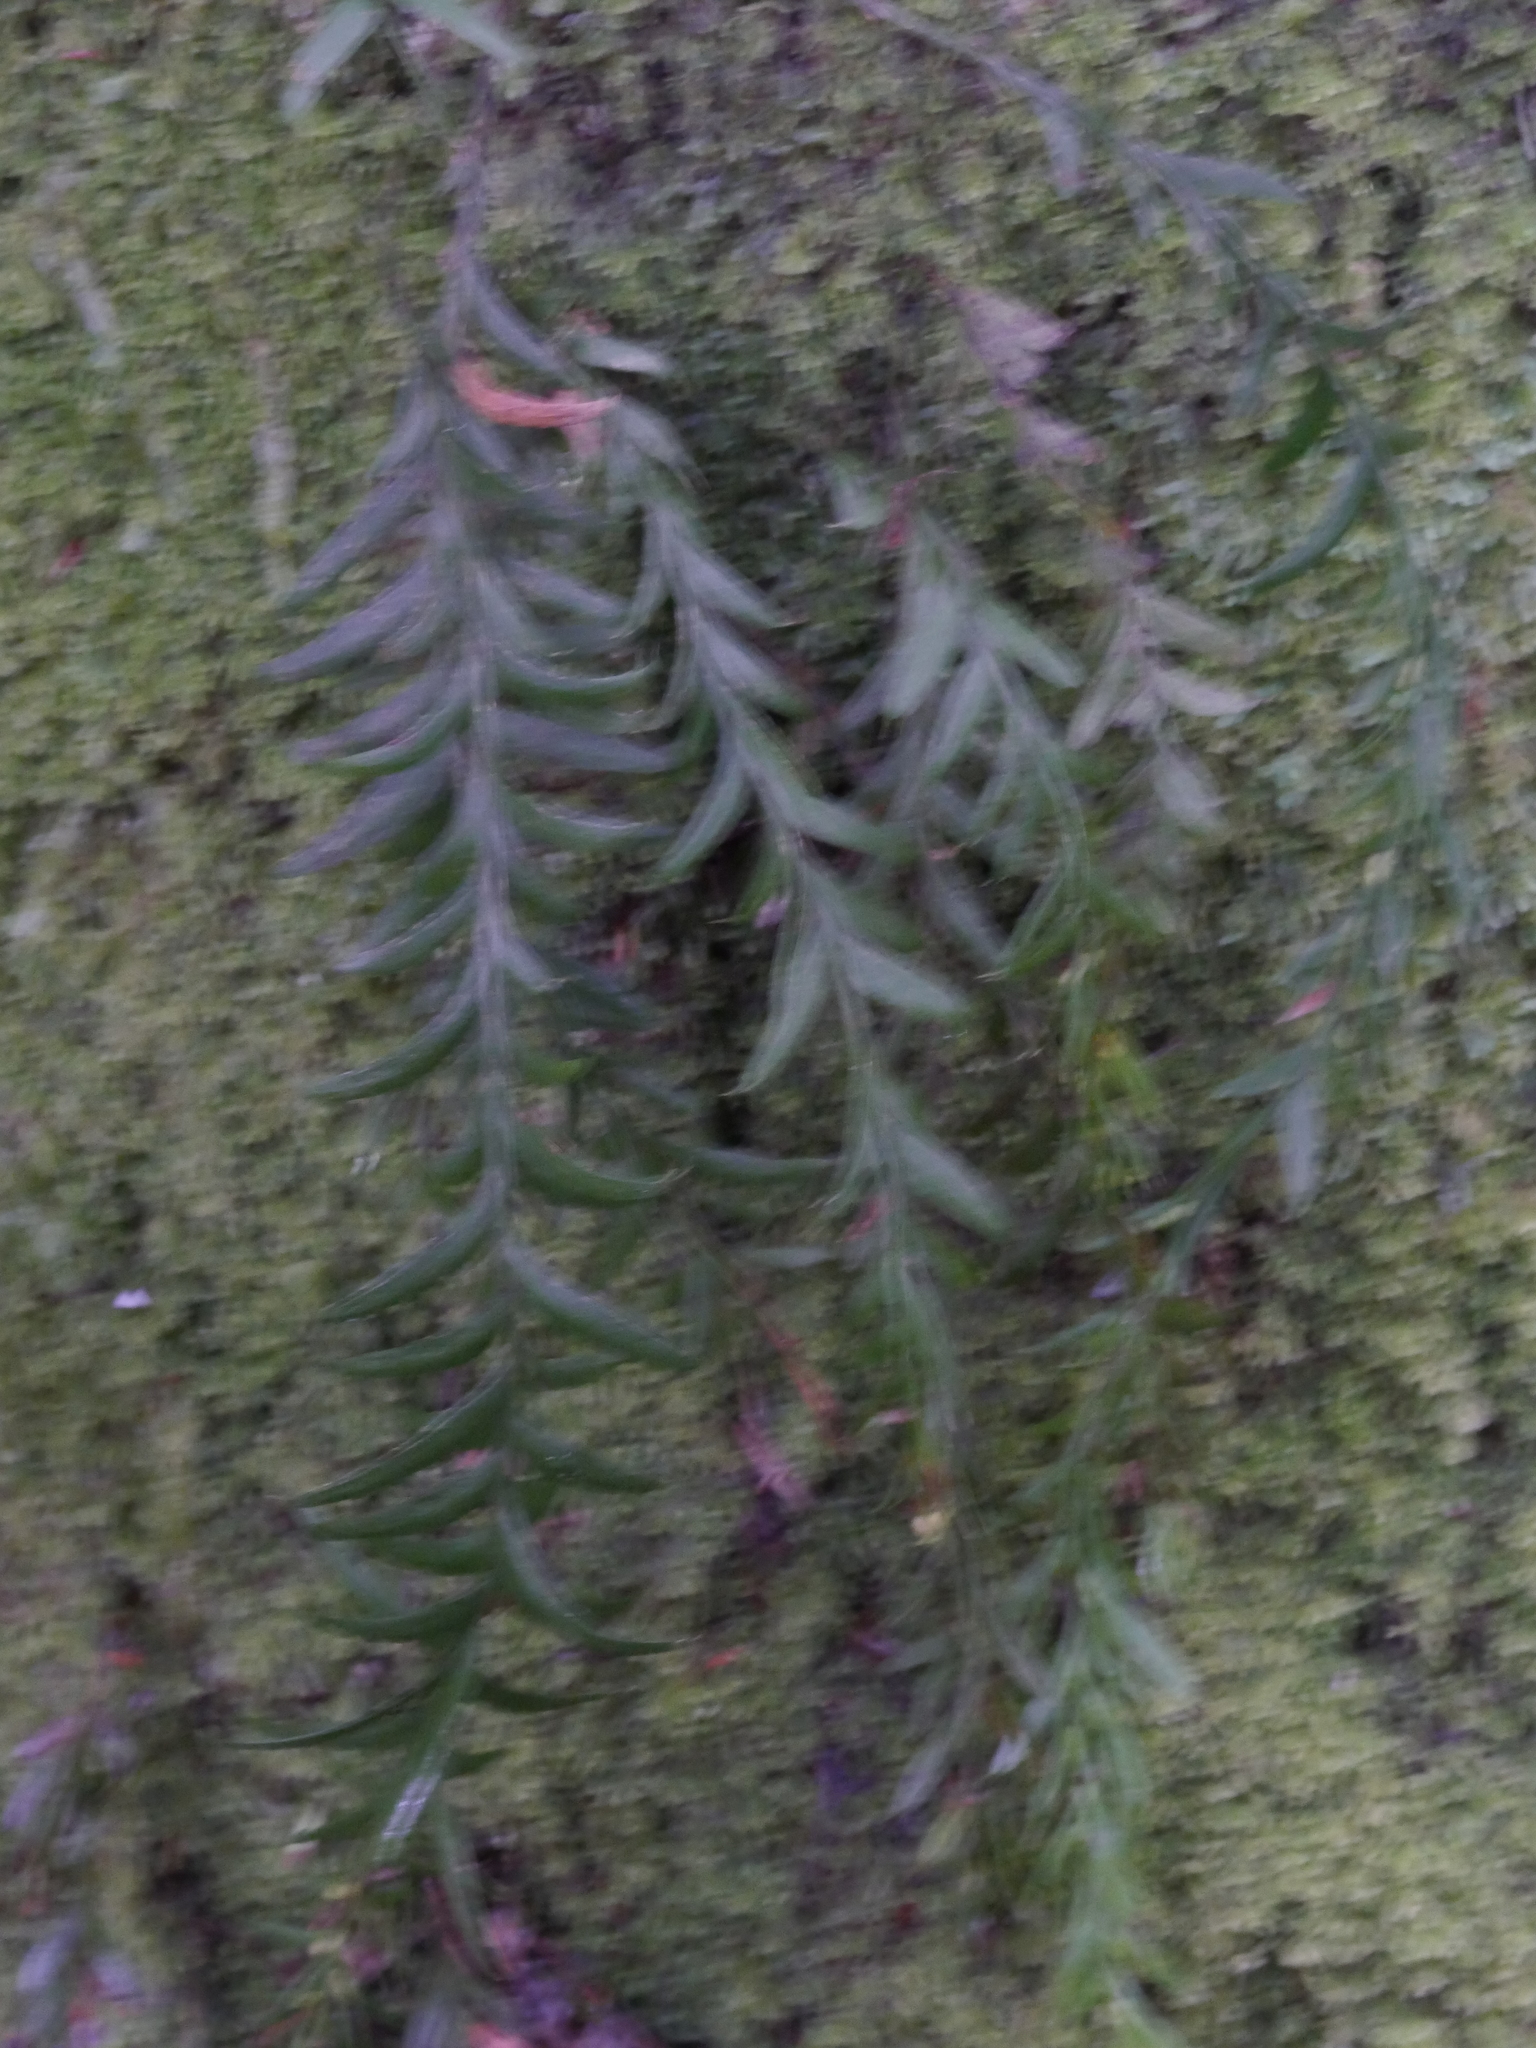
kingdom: Plantae
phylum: Tracheophyta
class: Polypodiopsida
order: Psilotales
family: Psilotaceae
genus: Tmesipteris
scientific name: Tmesipteris elongata
